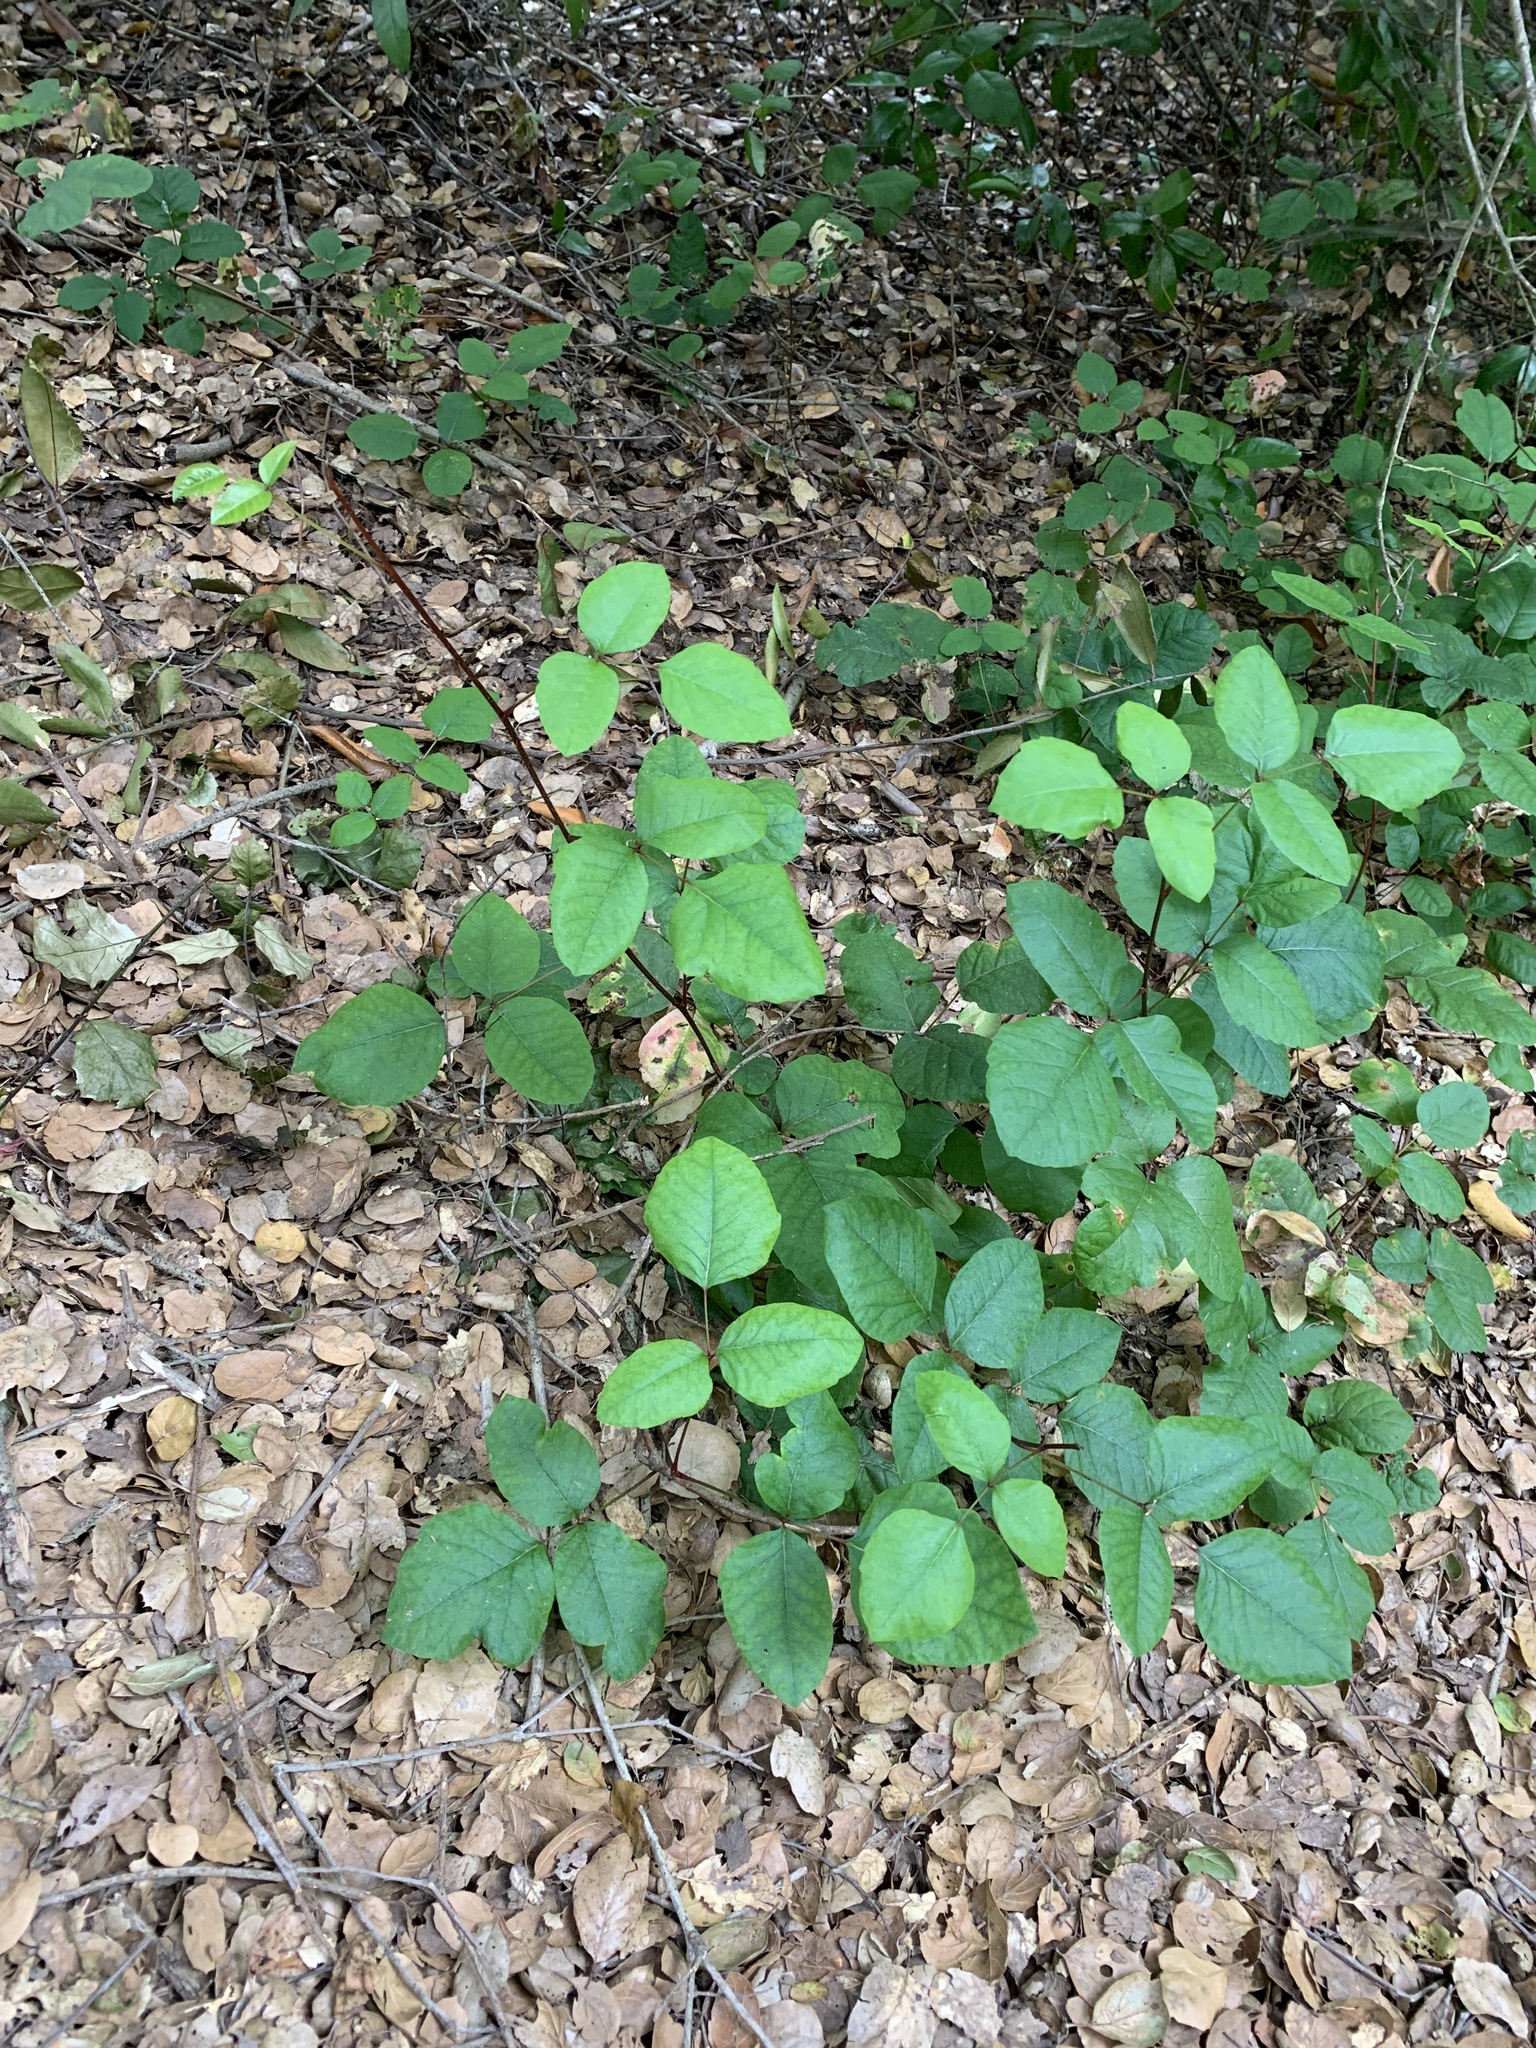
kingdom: Plantae
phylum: Tracheophyta
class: Magnoliopsida
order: Sapindales
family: Anacardiaceae
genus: Toxicodendron
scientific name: Toxicodendron diversilobum
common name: Pacific poison-oak
